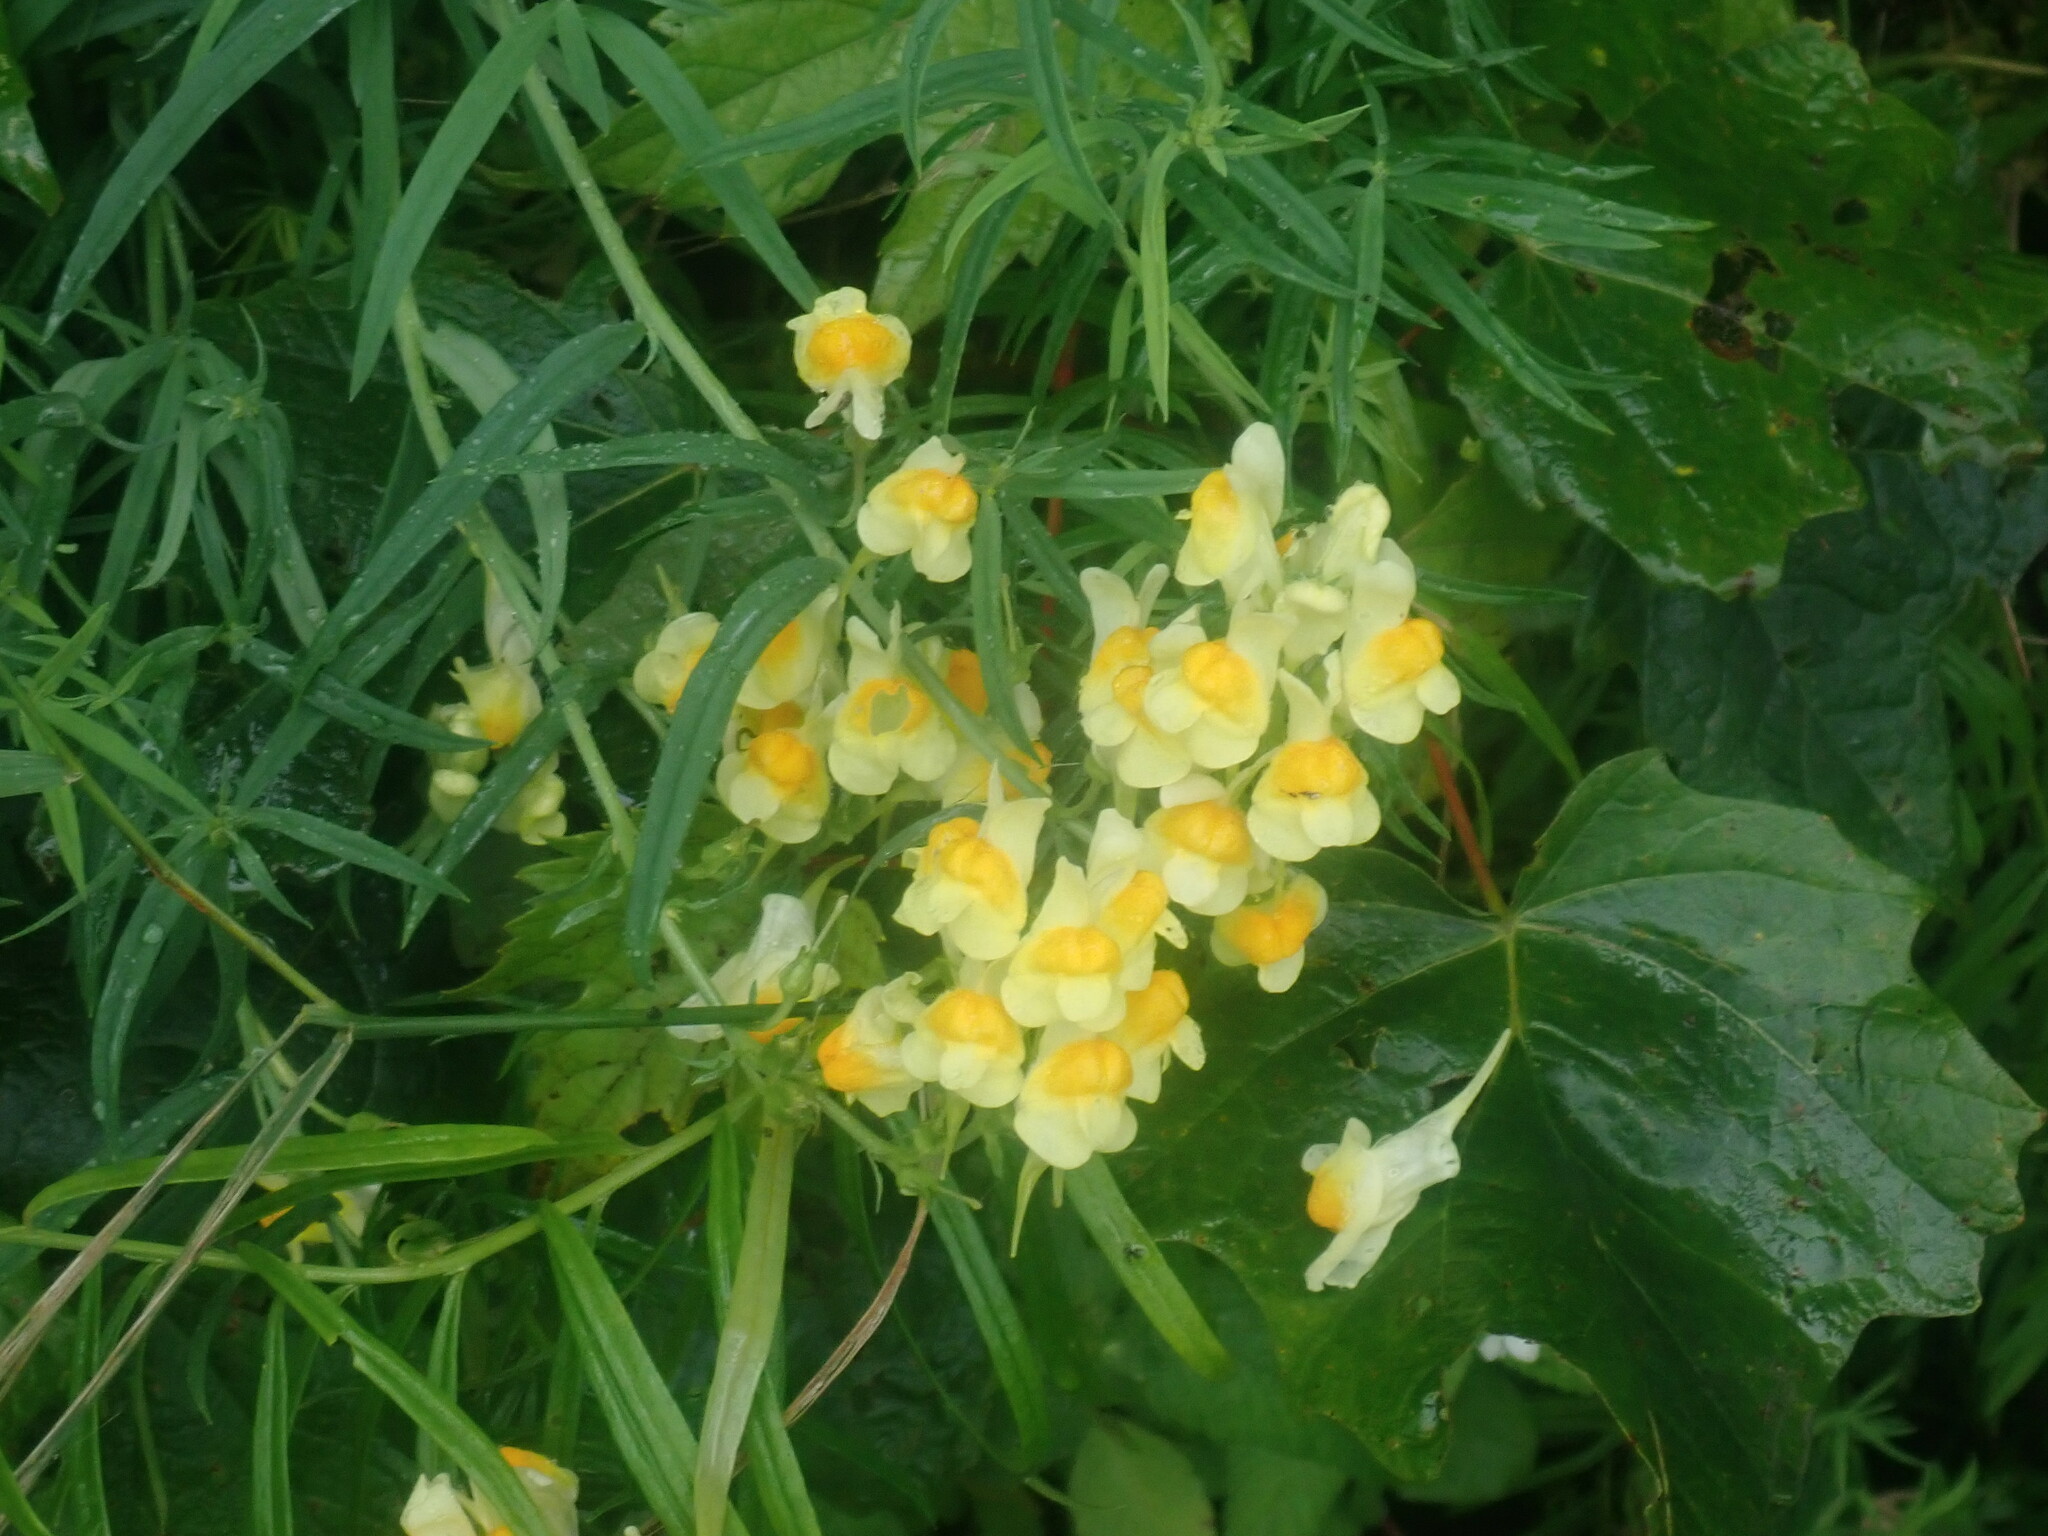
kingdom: Plantae
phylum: Tracheophyta
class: Magnoliopsida
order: Lamiales
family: Plantaginaceae
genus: Linaria
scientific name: Linaria vulgaris
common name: Butter and eggs
